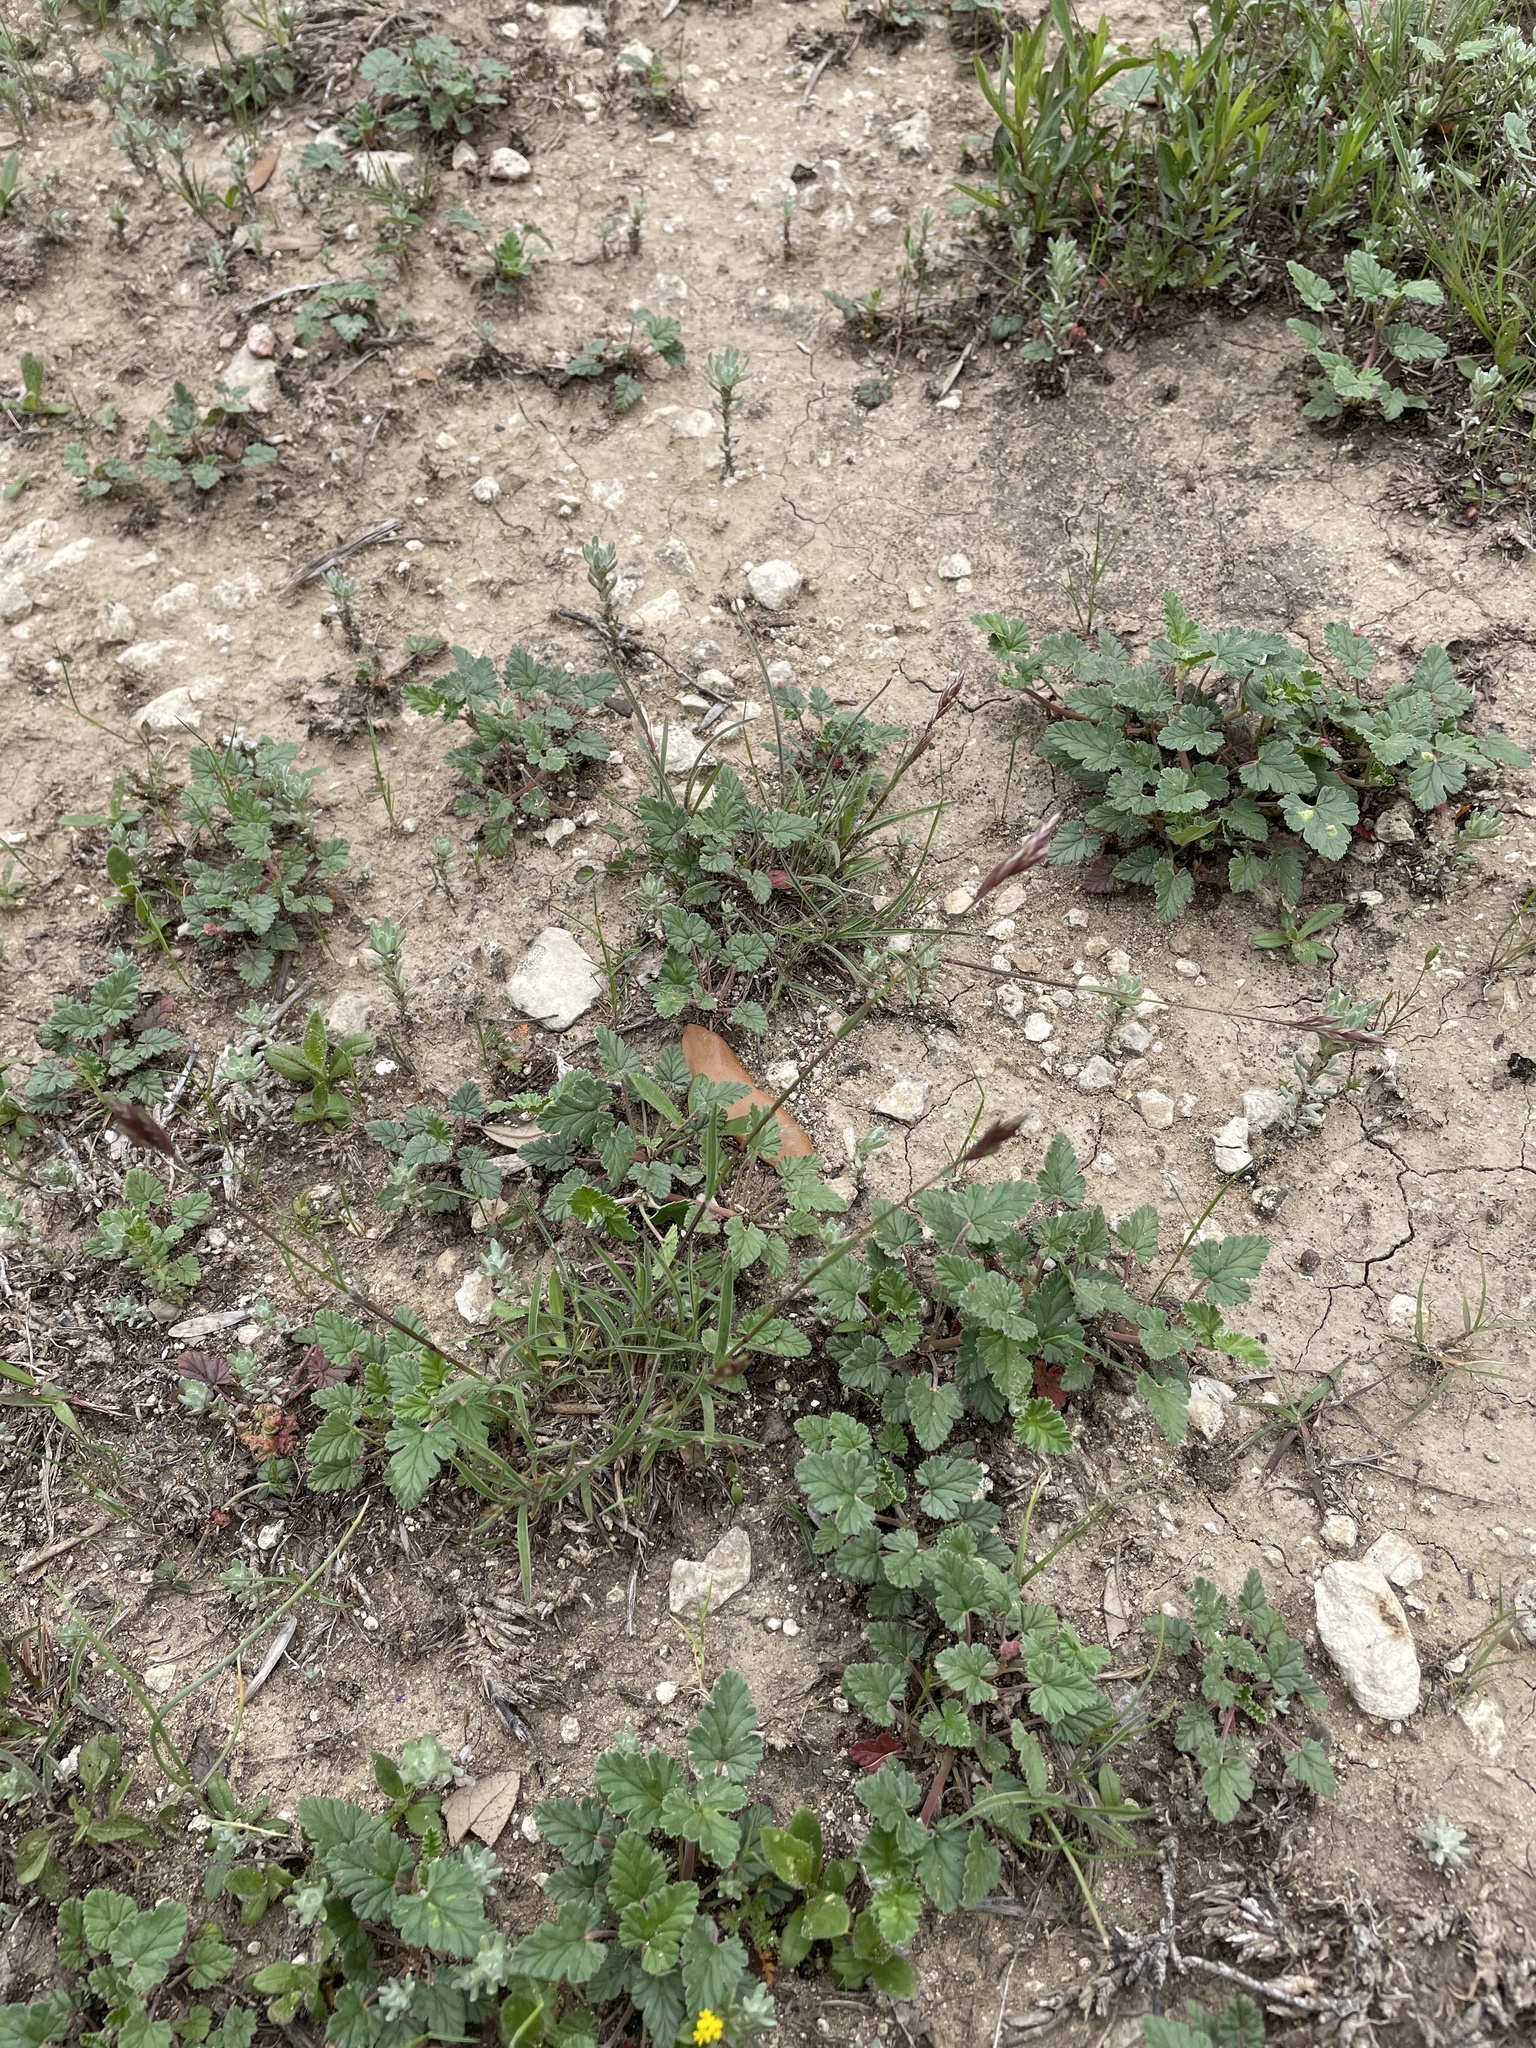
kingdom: Plantae
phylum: Tracheophyta
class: Liliopsida
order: Poales
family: Poaceae
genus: Erioneuron
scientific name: Erioneuron pilosum
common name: Hairy woolly grass
